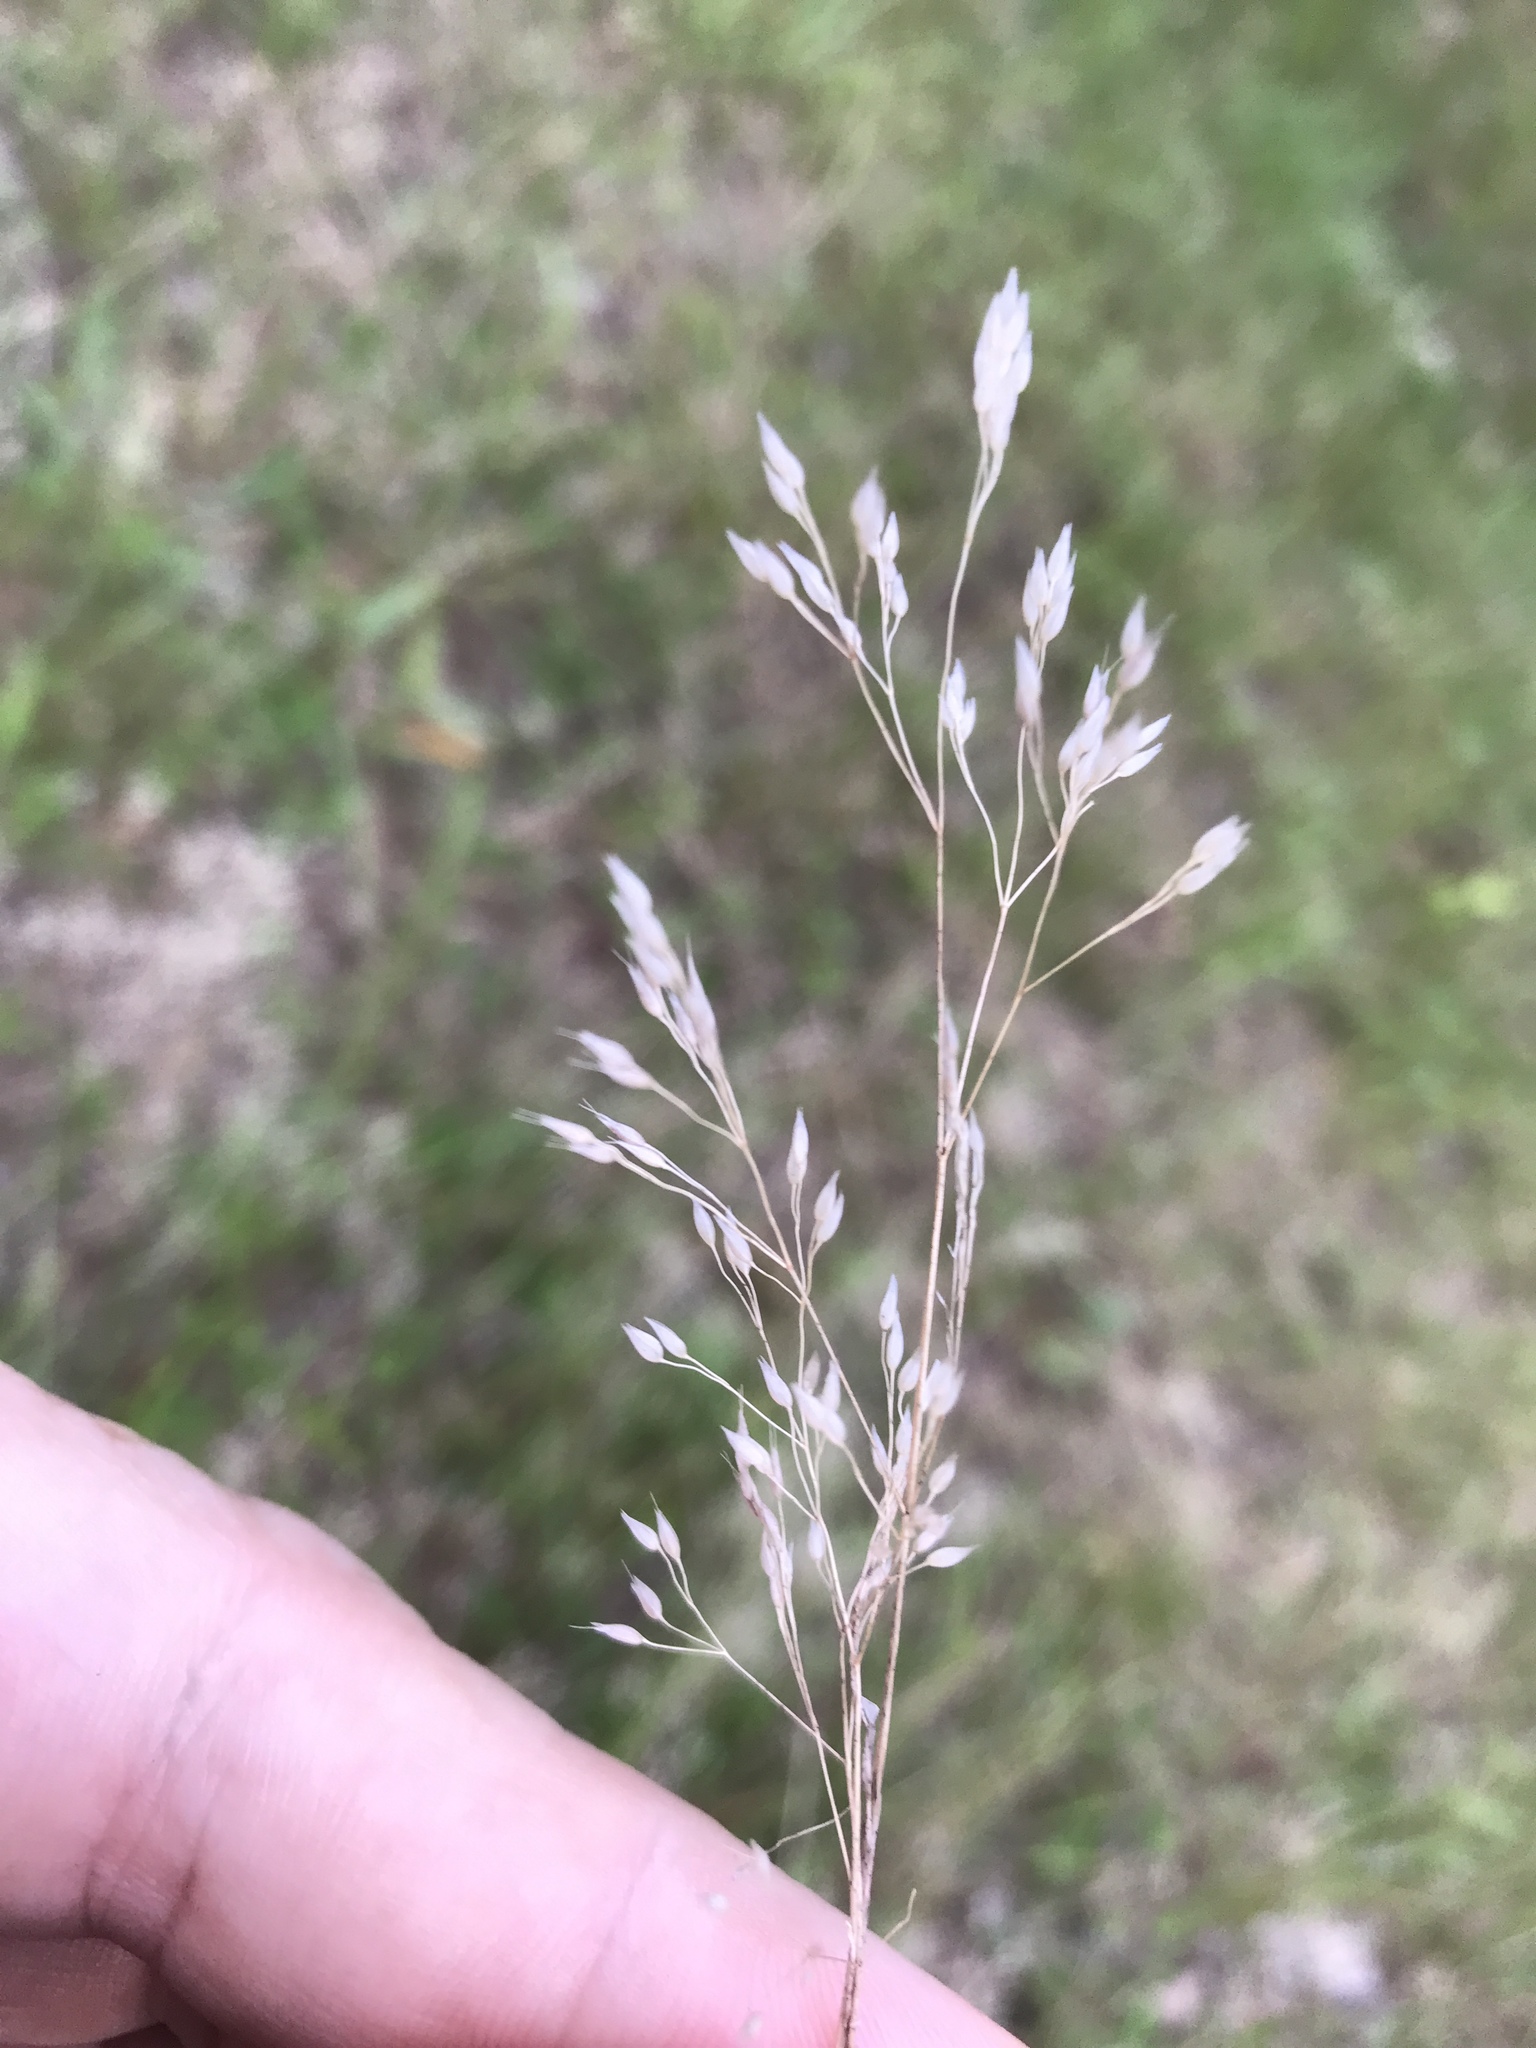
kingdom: Plantae
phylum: Tracheophyta
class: Liliopsida
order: Poales
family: Poaceae
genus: Aira
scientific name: Aira caryophyllea
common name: Silver hairgrass
